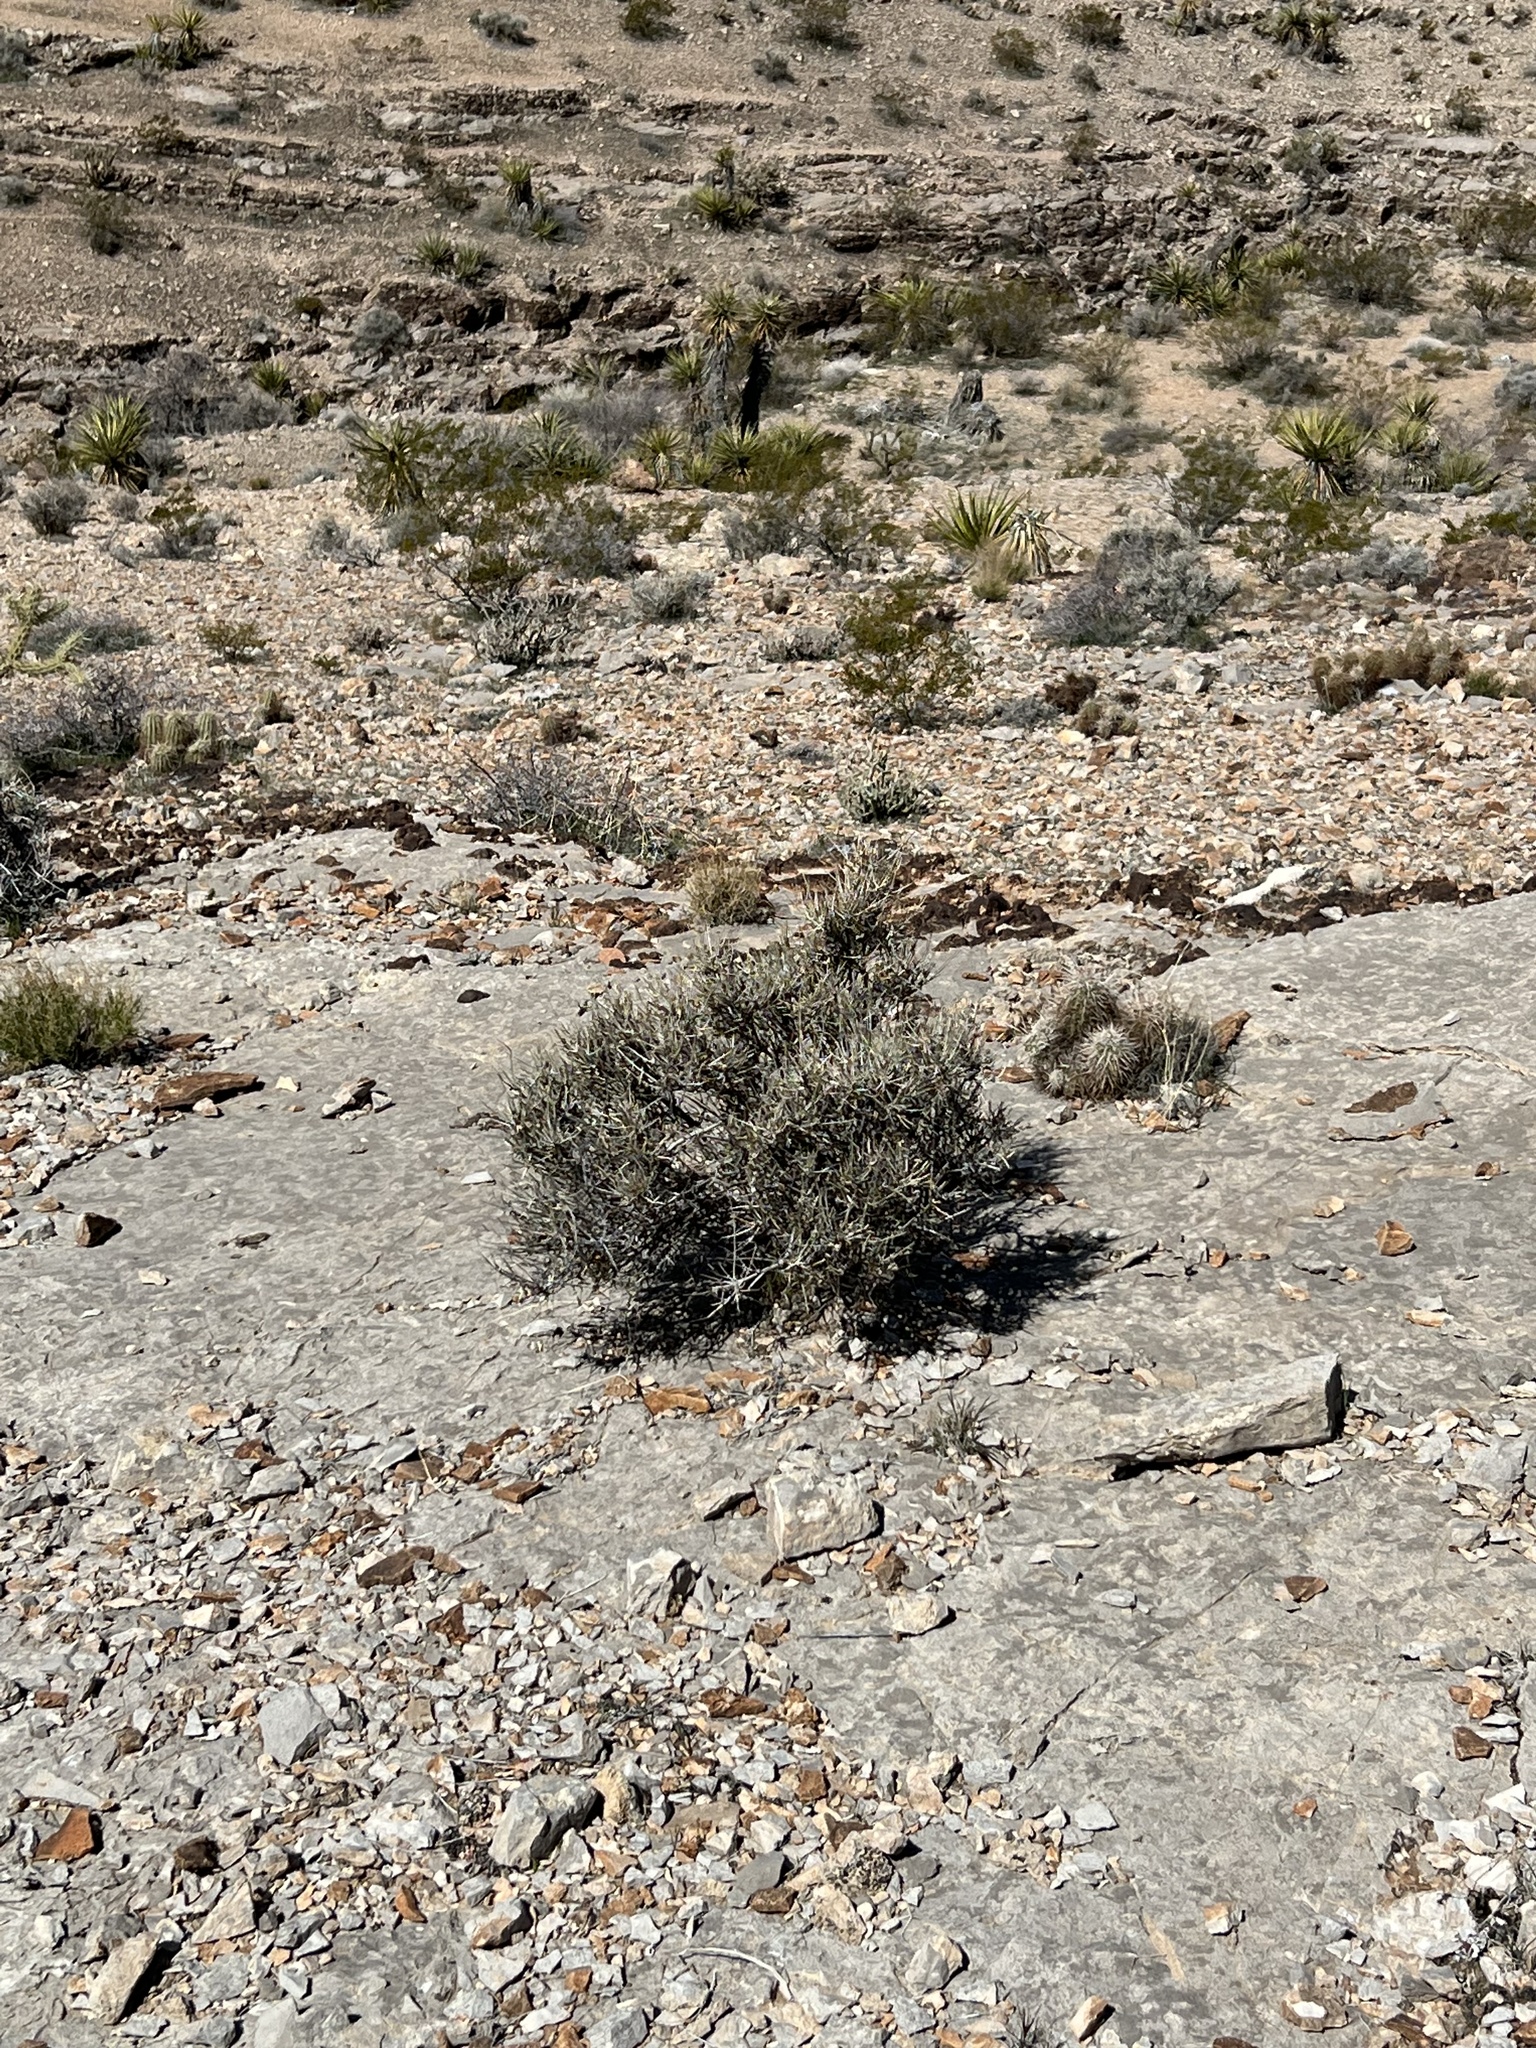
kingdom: Plantae
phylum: Tracheophyta
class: Gnetopsida
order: Ephedrales
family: Ephedraceae
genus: Ephedra
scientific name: Ephedra nevadensis
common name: Gray ephedra
